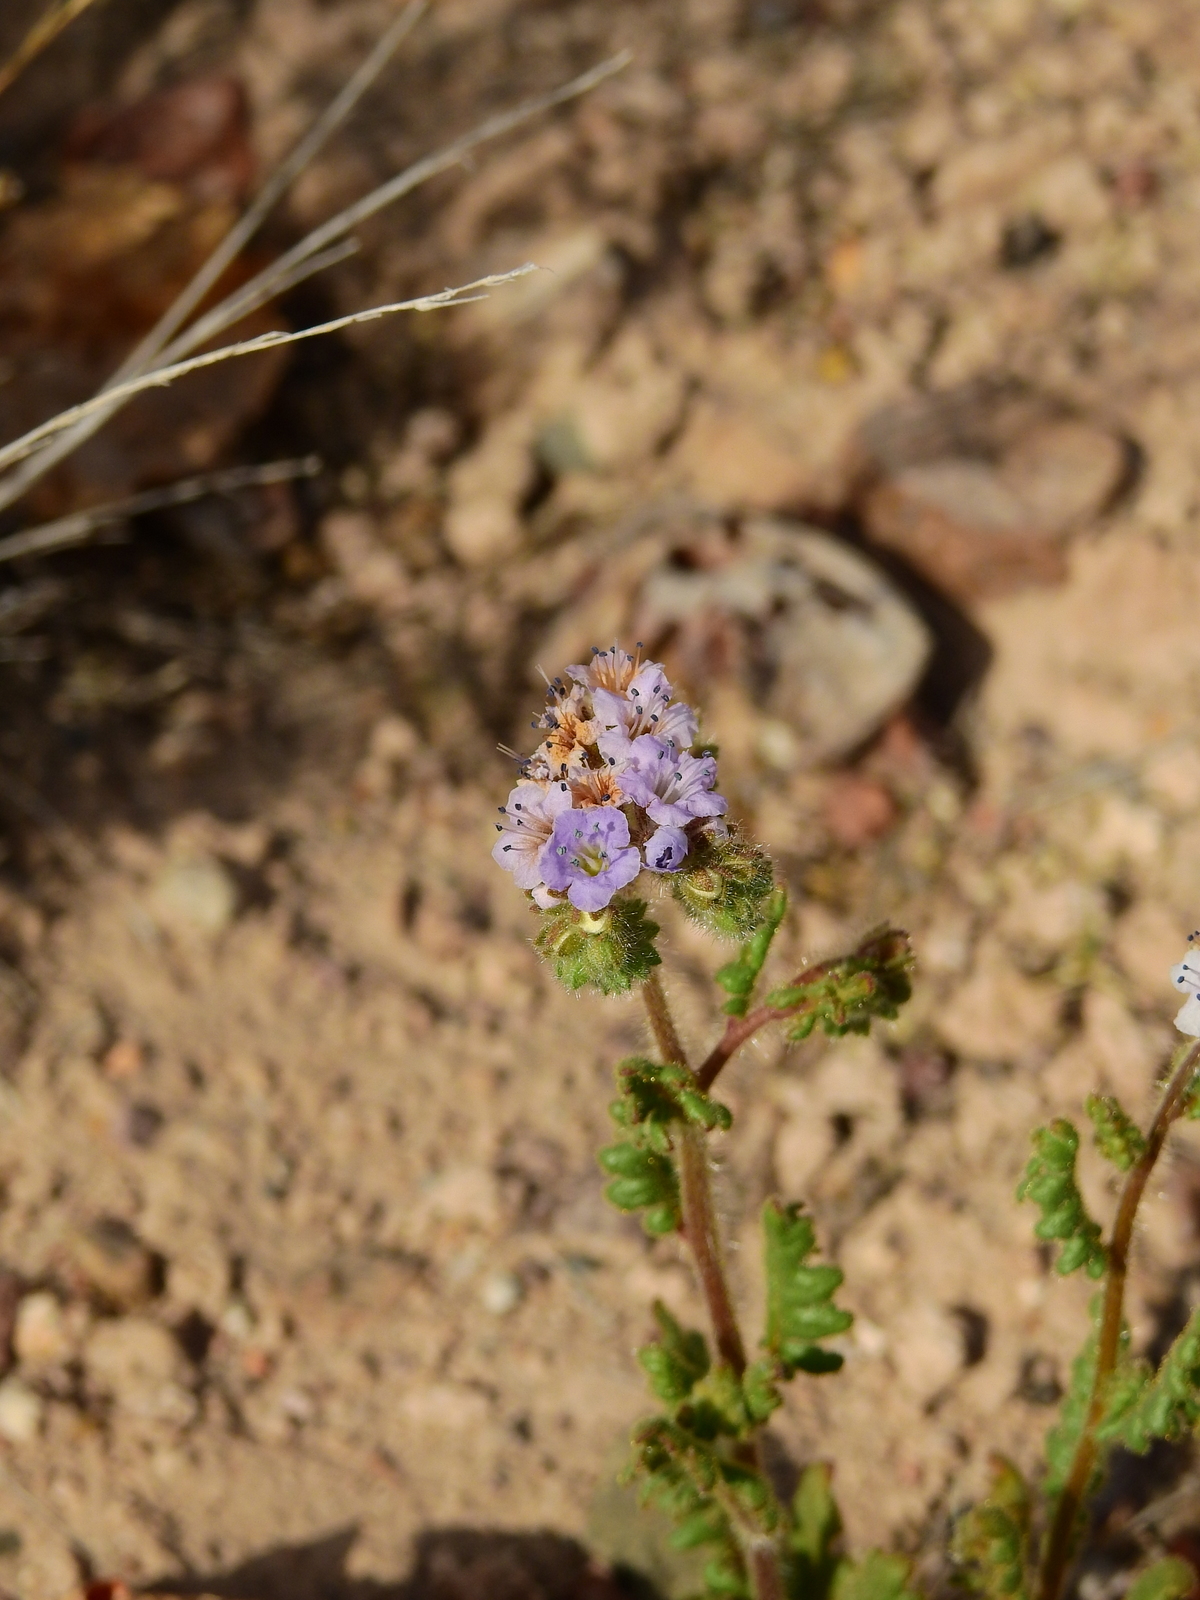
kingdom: Plantae
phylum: Tracheophyta
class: Magnoliopsida
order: Boraginales
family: Hydrophyllaceae
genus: Phacelia
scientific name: Phacelia pinnatifida
